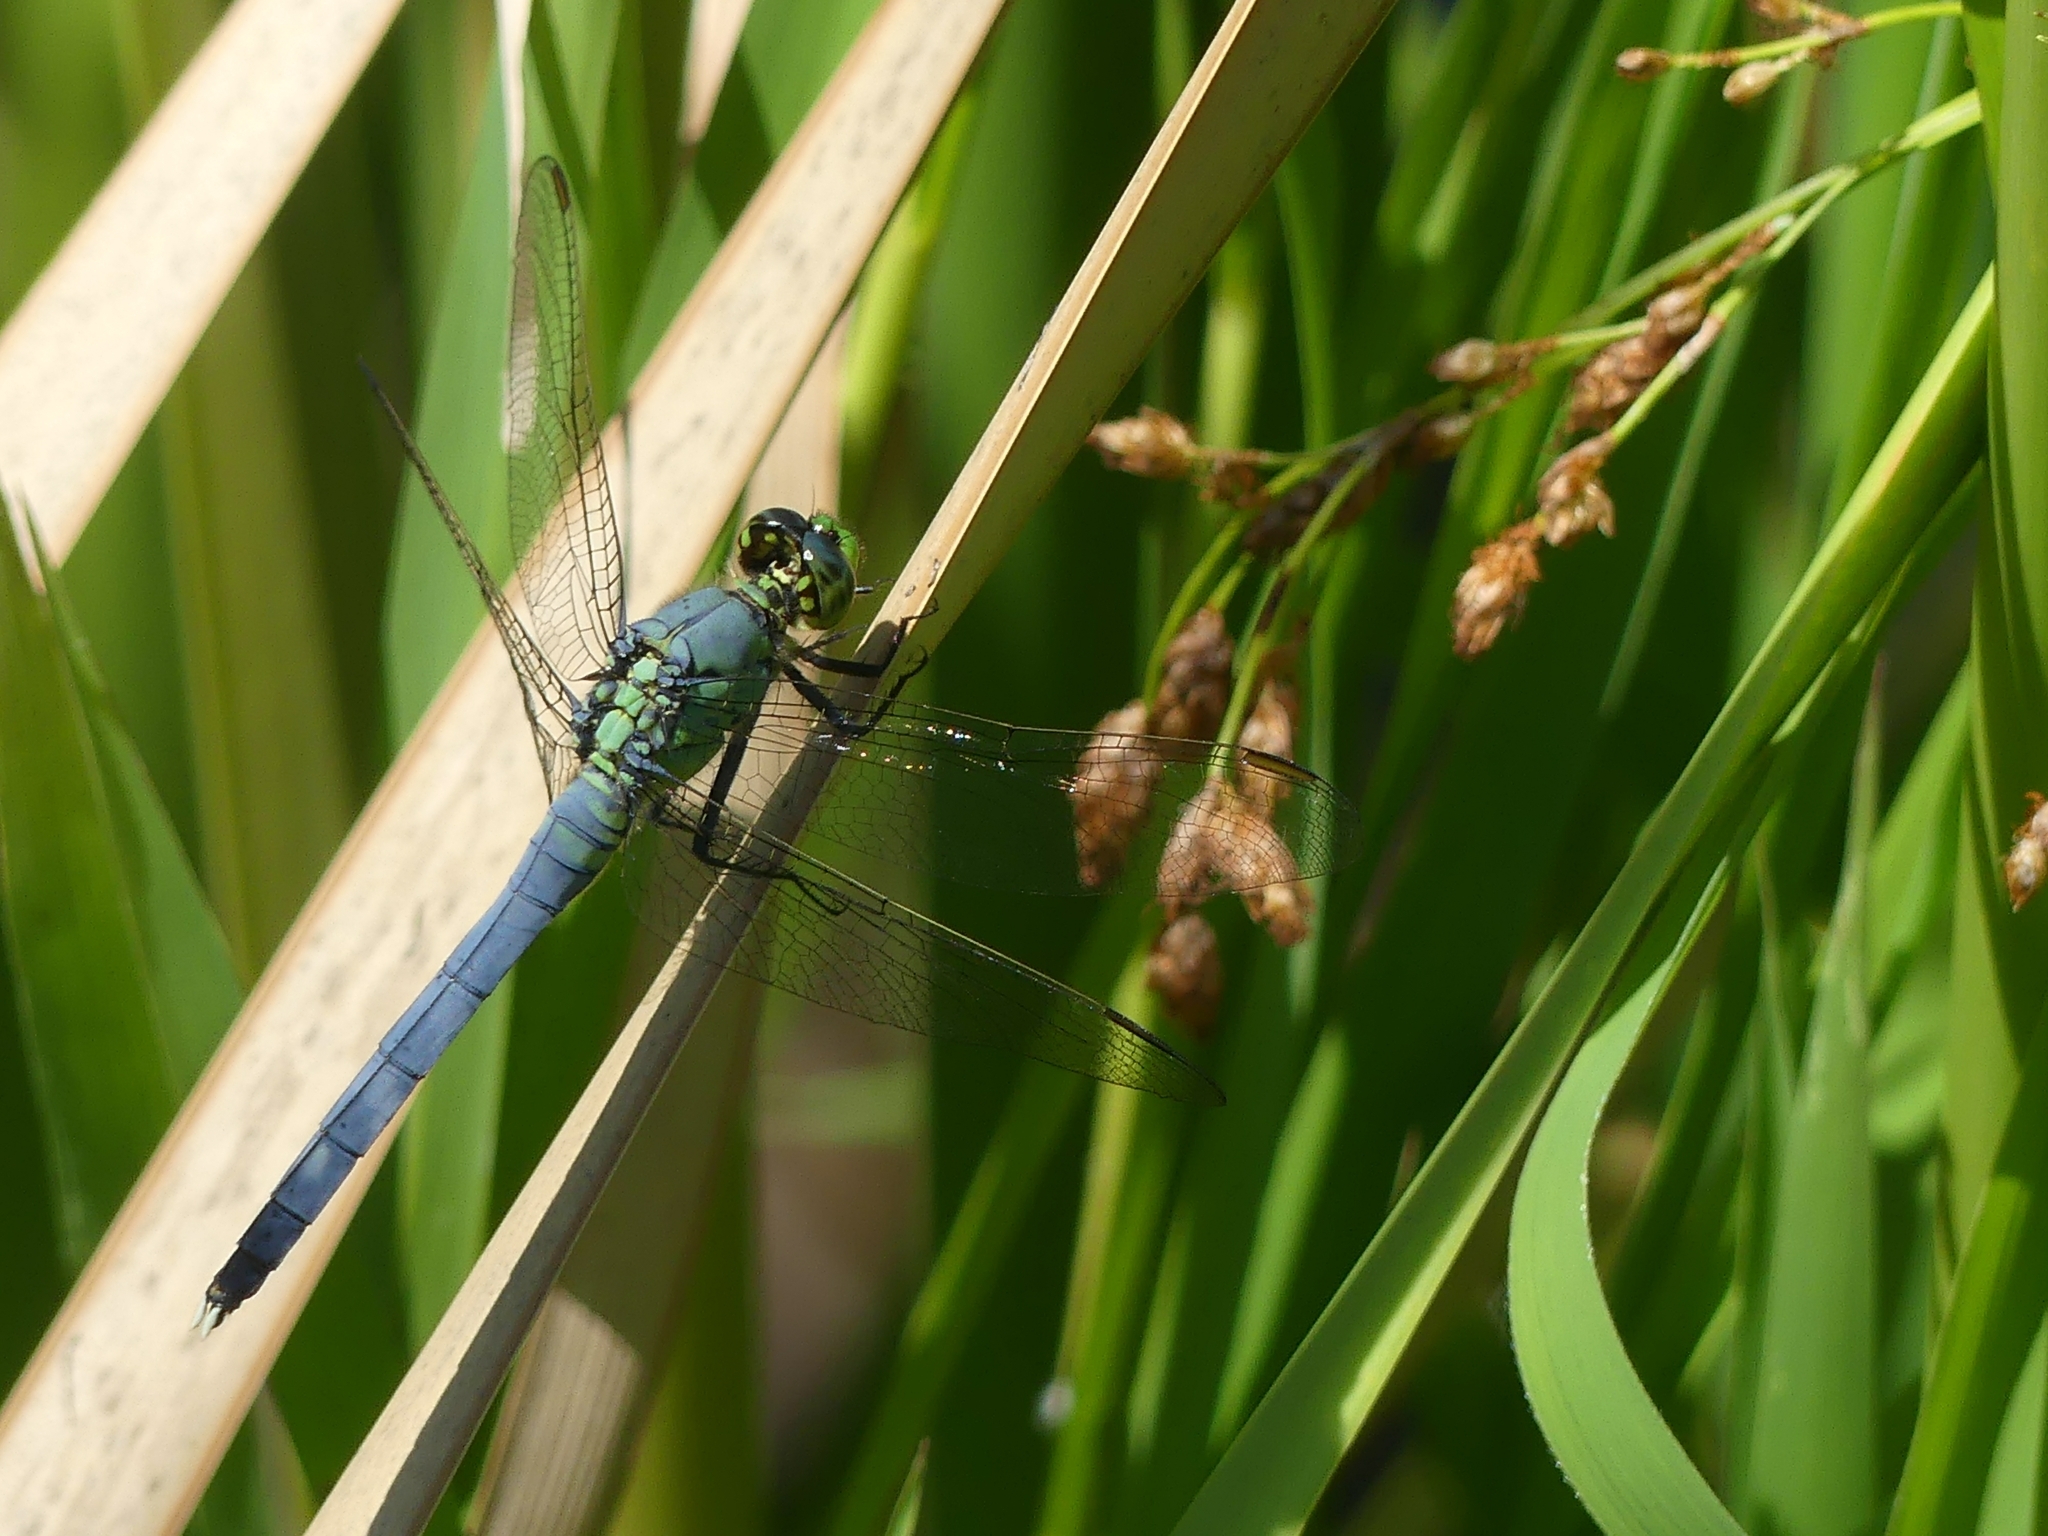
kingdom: Animalia
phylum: Arthropoda
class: Insecta
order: Odonata
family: Libellulidae
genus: Erythemis
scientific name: Erythemis simplicicollis
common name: Eastern pondhawk
